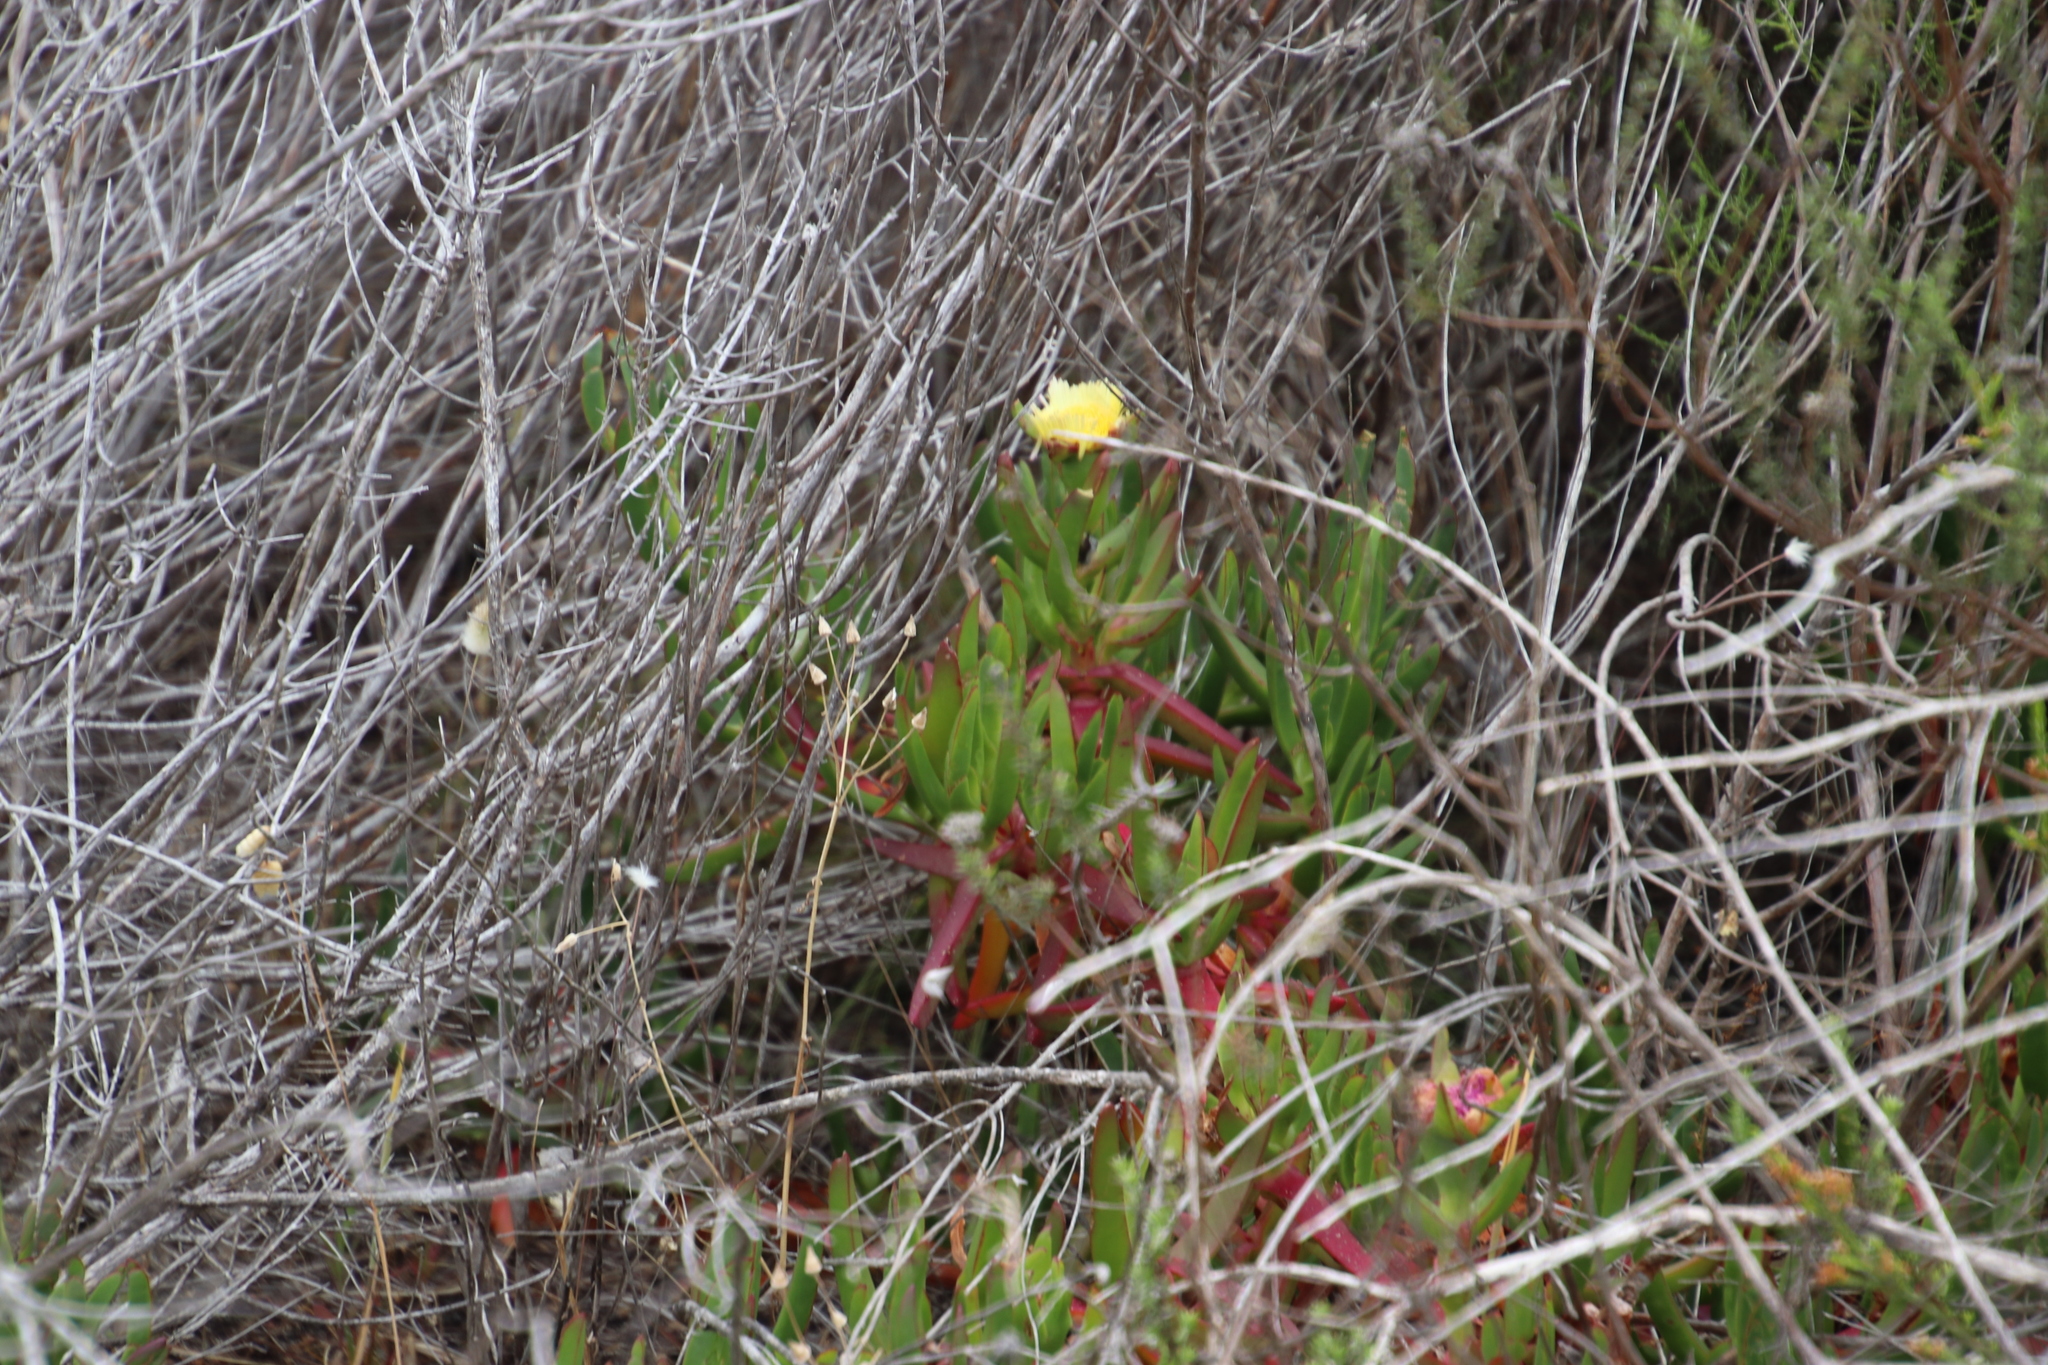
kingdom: Plantae
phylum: Tracheophyta
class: Magnoliopsida
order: Caryophyllales
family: Aizoaceae
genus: Carpobrotus
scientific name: Carpobrotus edulis
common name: Hottentot-fig
